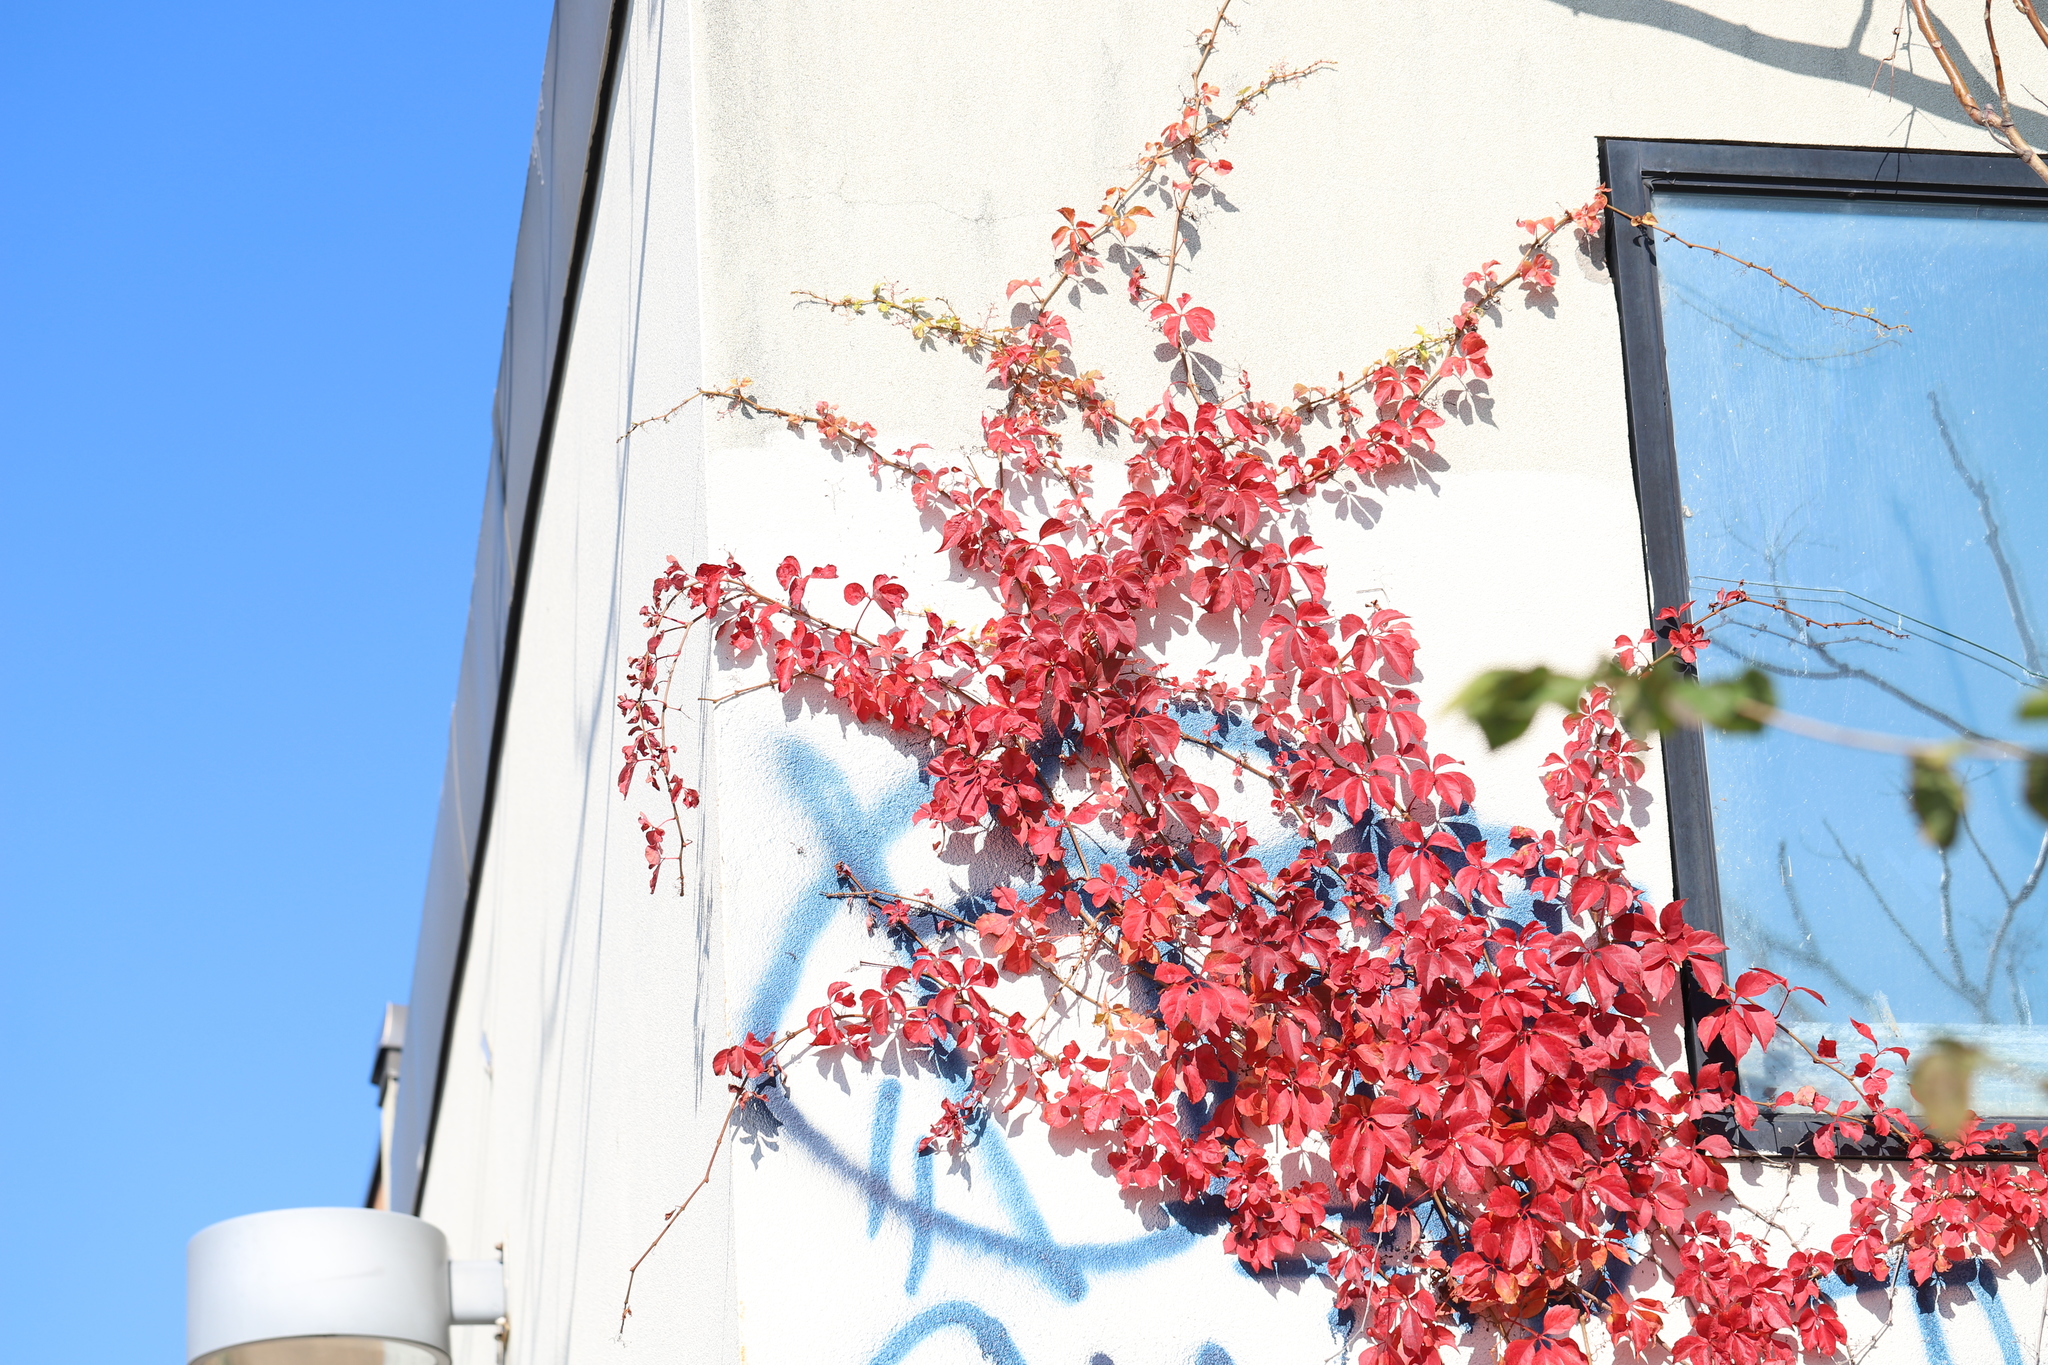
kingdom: Plantae
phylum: Tracheophyta
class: Magnoliopsida
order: Vitales
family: Vitaceae
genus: Parthenocissus
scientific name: Parthenocissus quinquefolia
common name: Virginia-creeper
